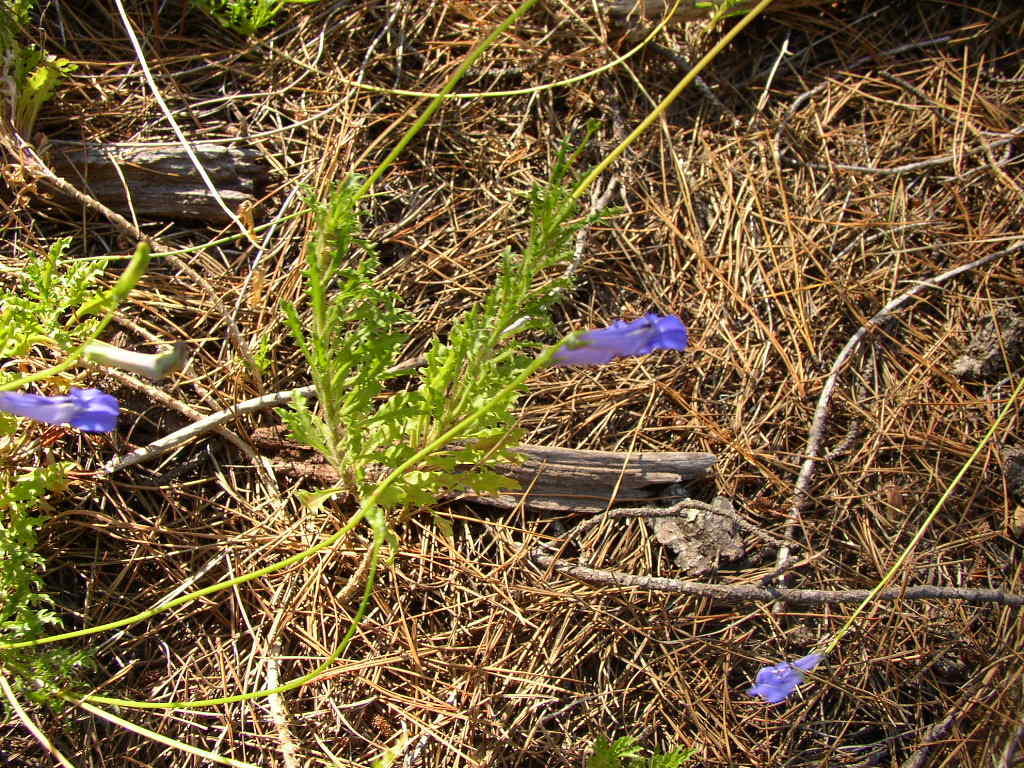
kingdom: Plantae
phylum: Tracheophyta
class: Magnoliopsida
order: Asterales
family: Campanulaceae
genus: Lobelia
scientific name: Lobelia coronopifolia
